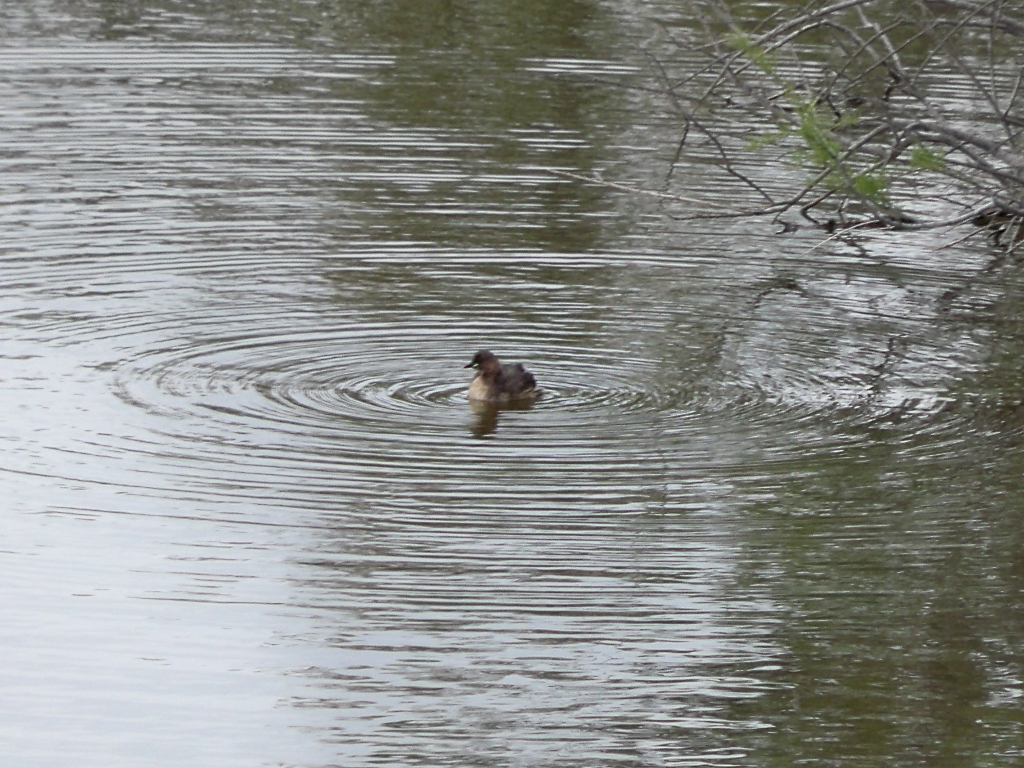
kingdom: Animalia
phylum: Chordata
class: Aves
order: Podicipediformes
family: Podicipedidae
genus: Tachybaptus
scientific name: Tachybaptus ruficollis
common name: Little grebe
